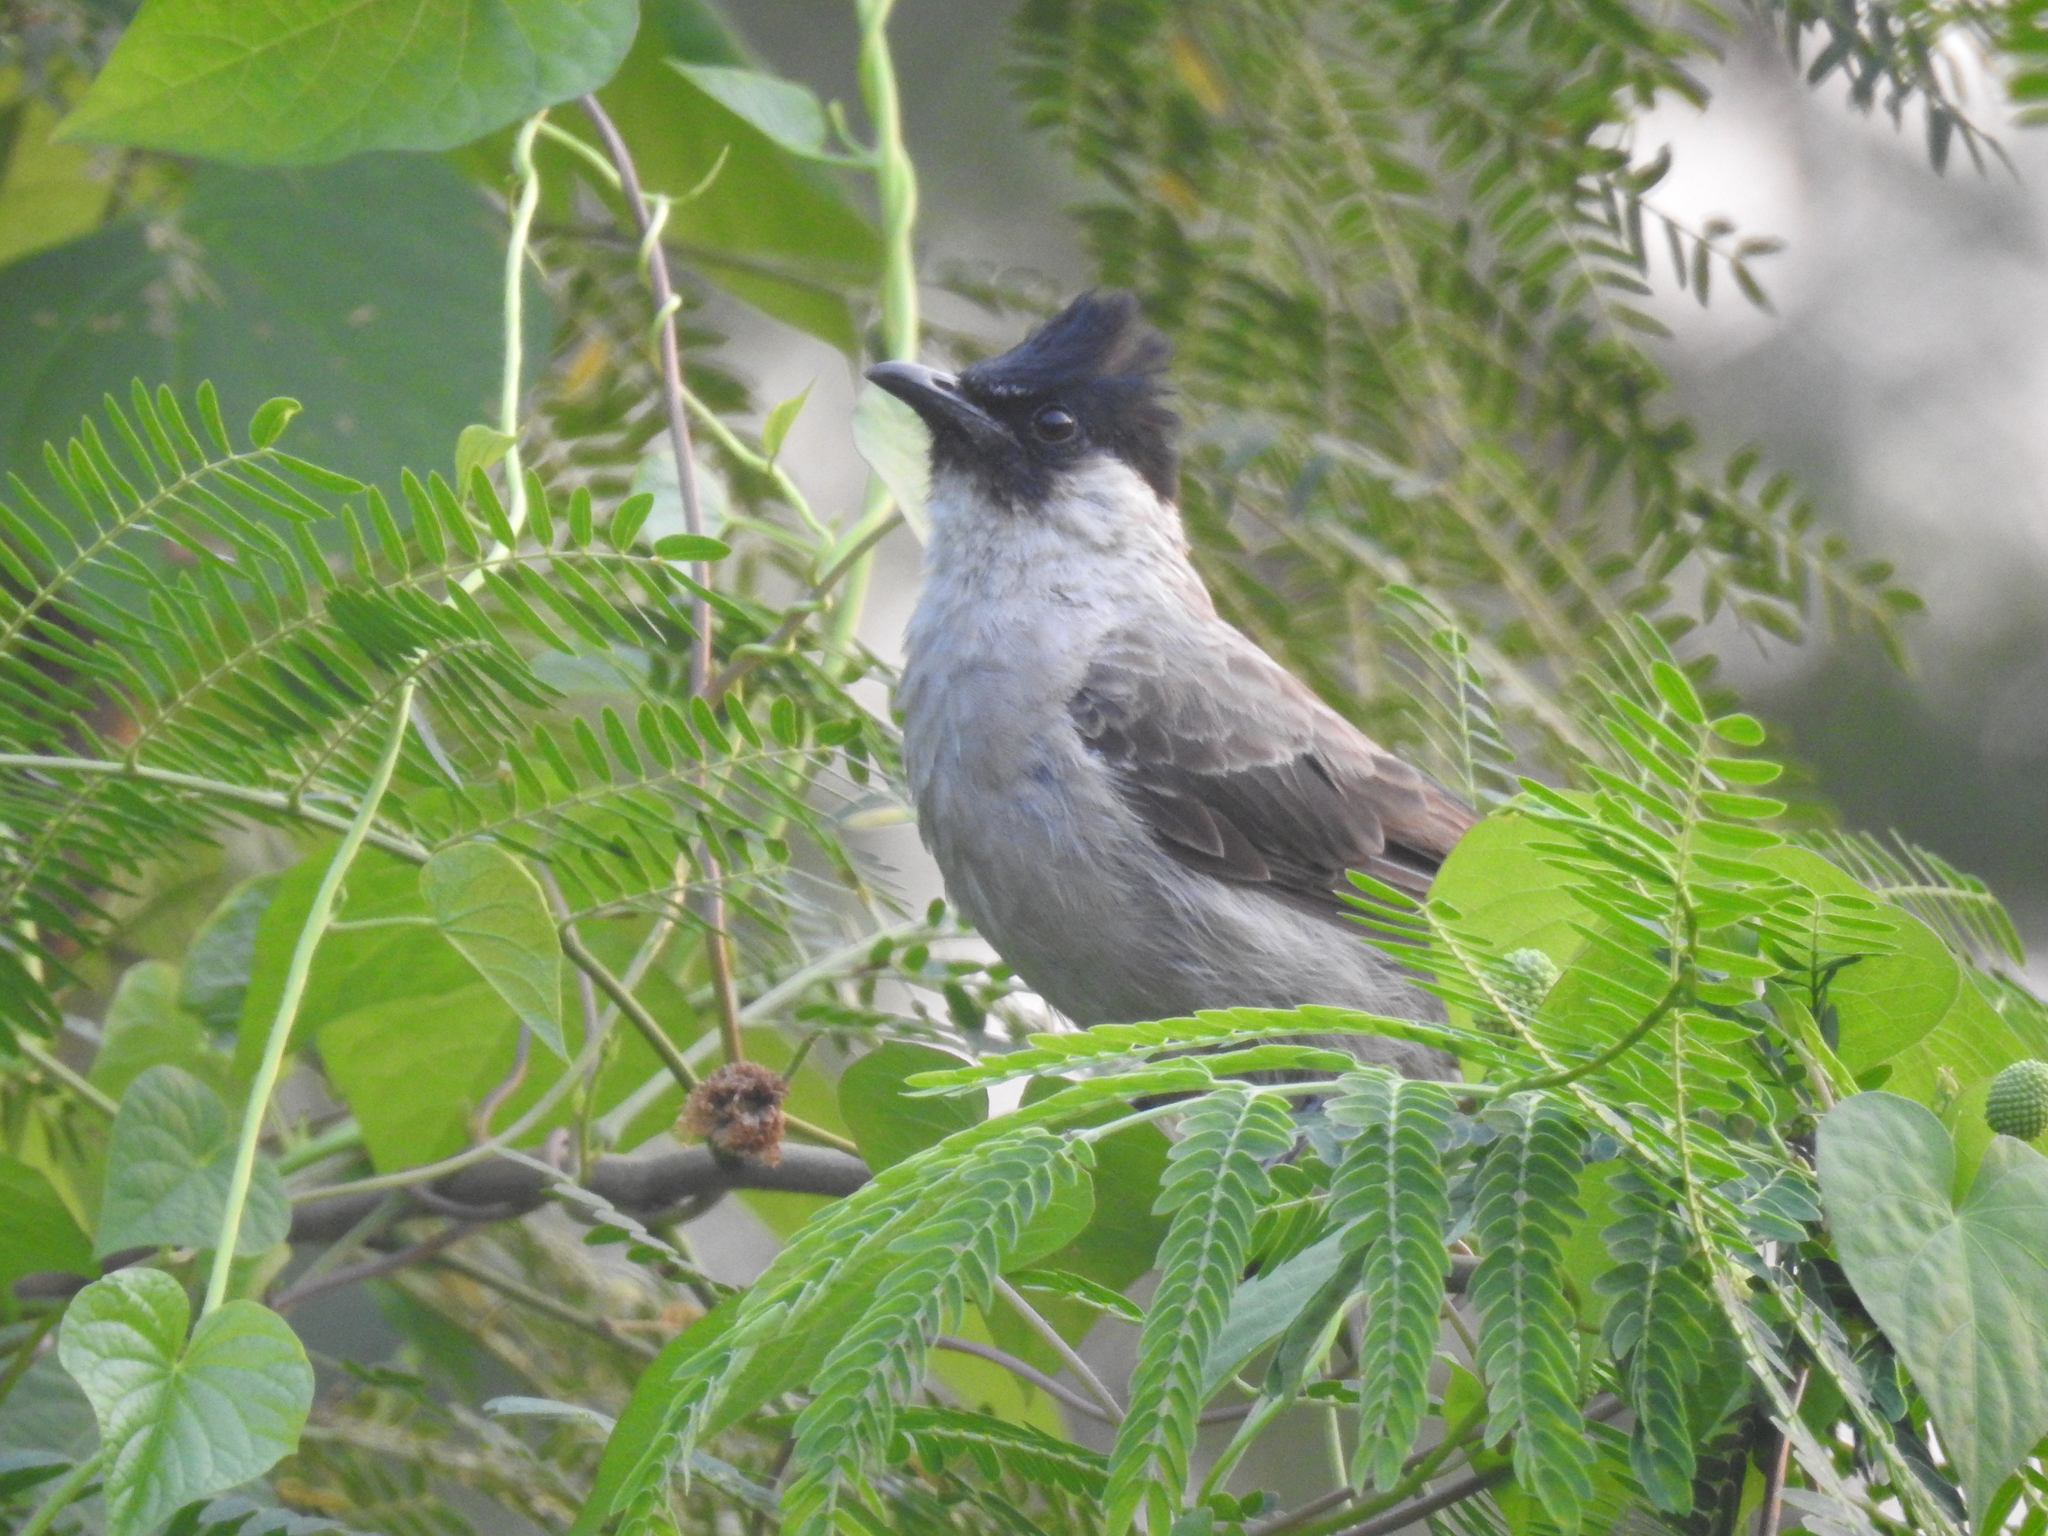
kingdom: Animalia
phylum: Chordata
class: Aves
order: Passeriformes
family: Pycnonotidae
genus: Pycnonotus
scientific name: Pycnonotus aurigaster
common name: Sooty-headed bulbul
